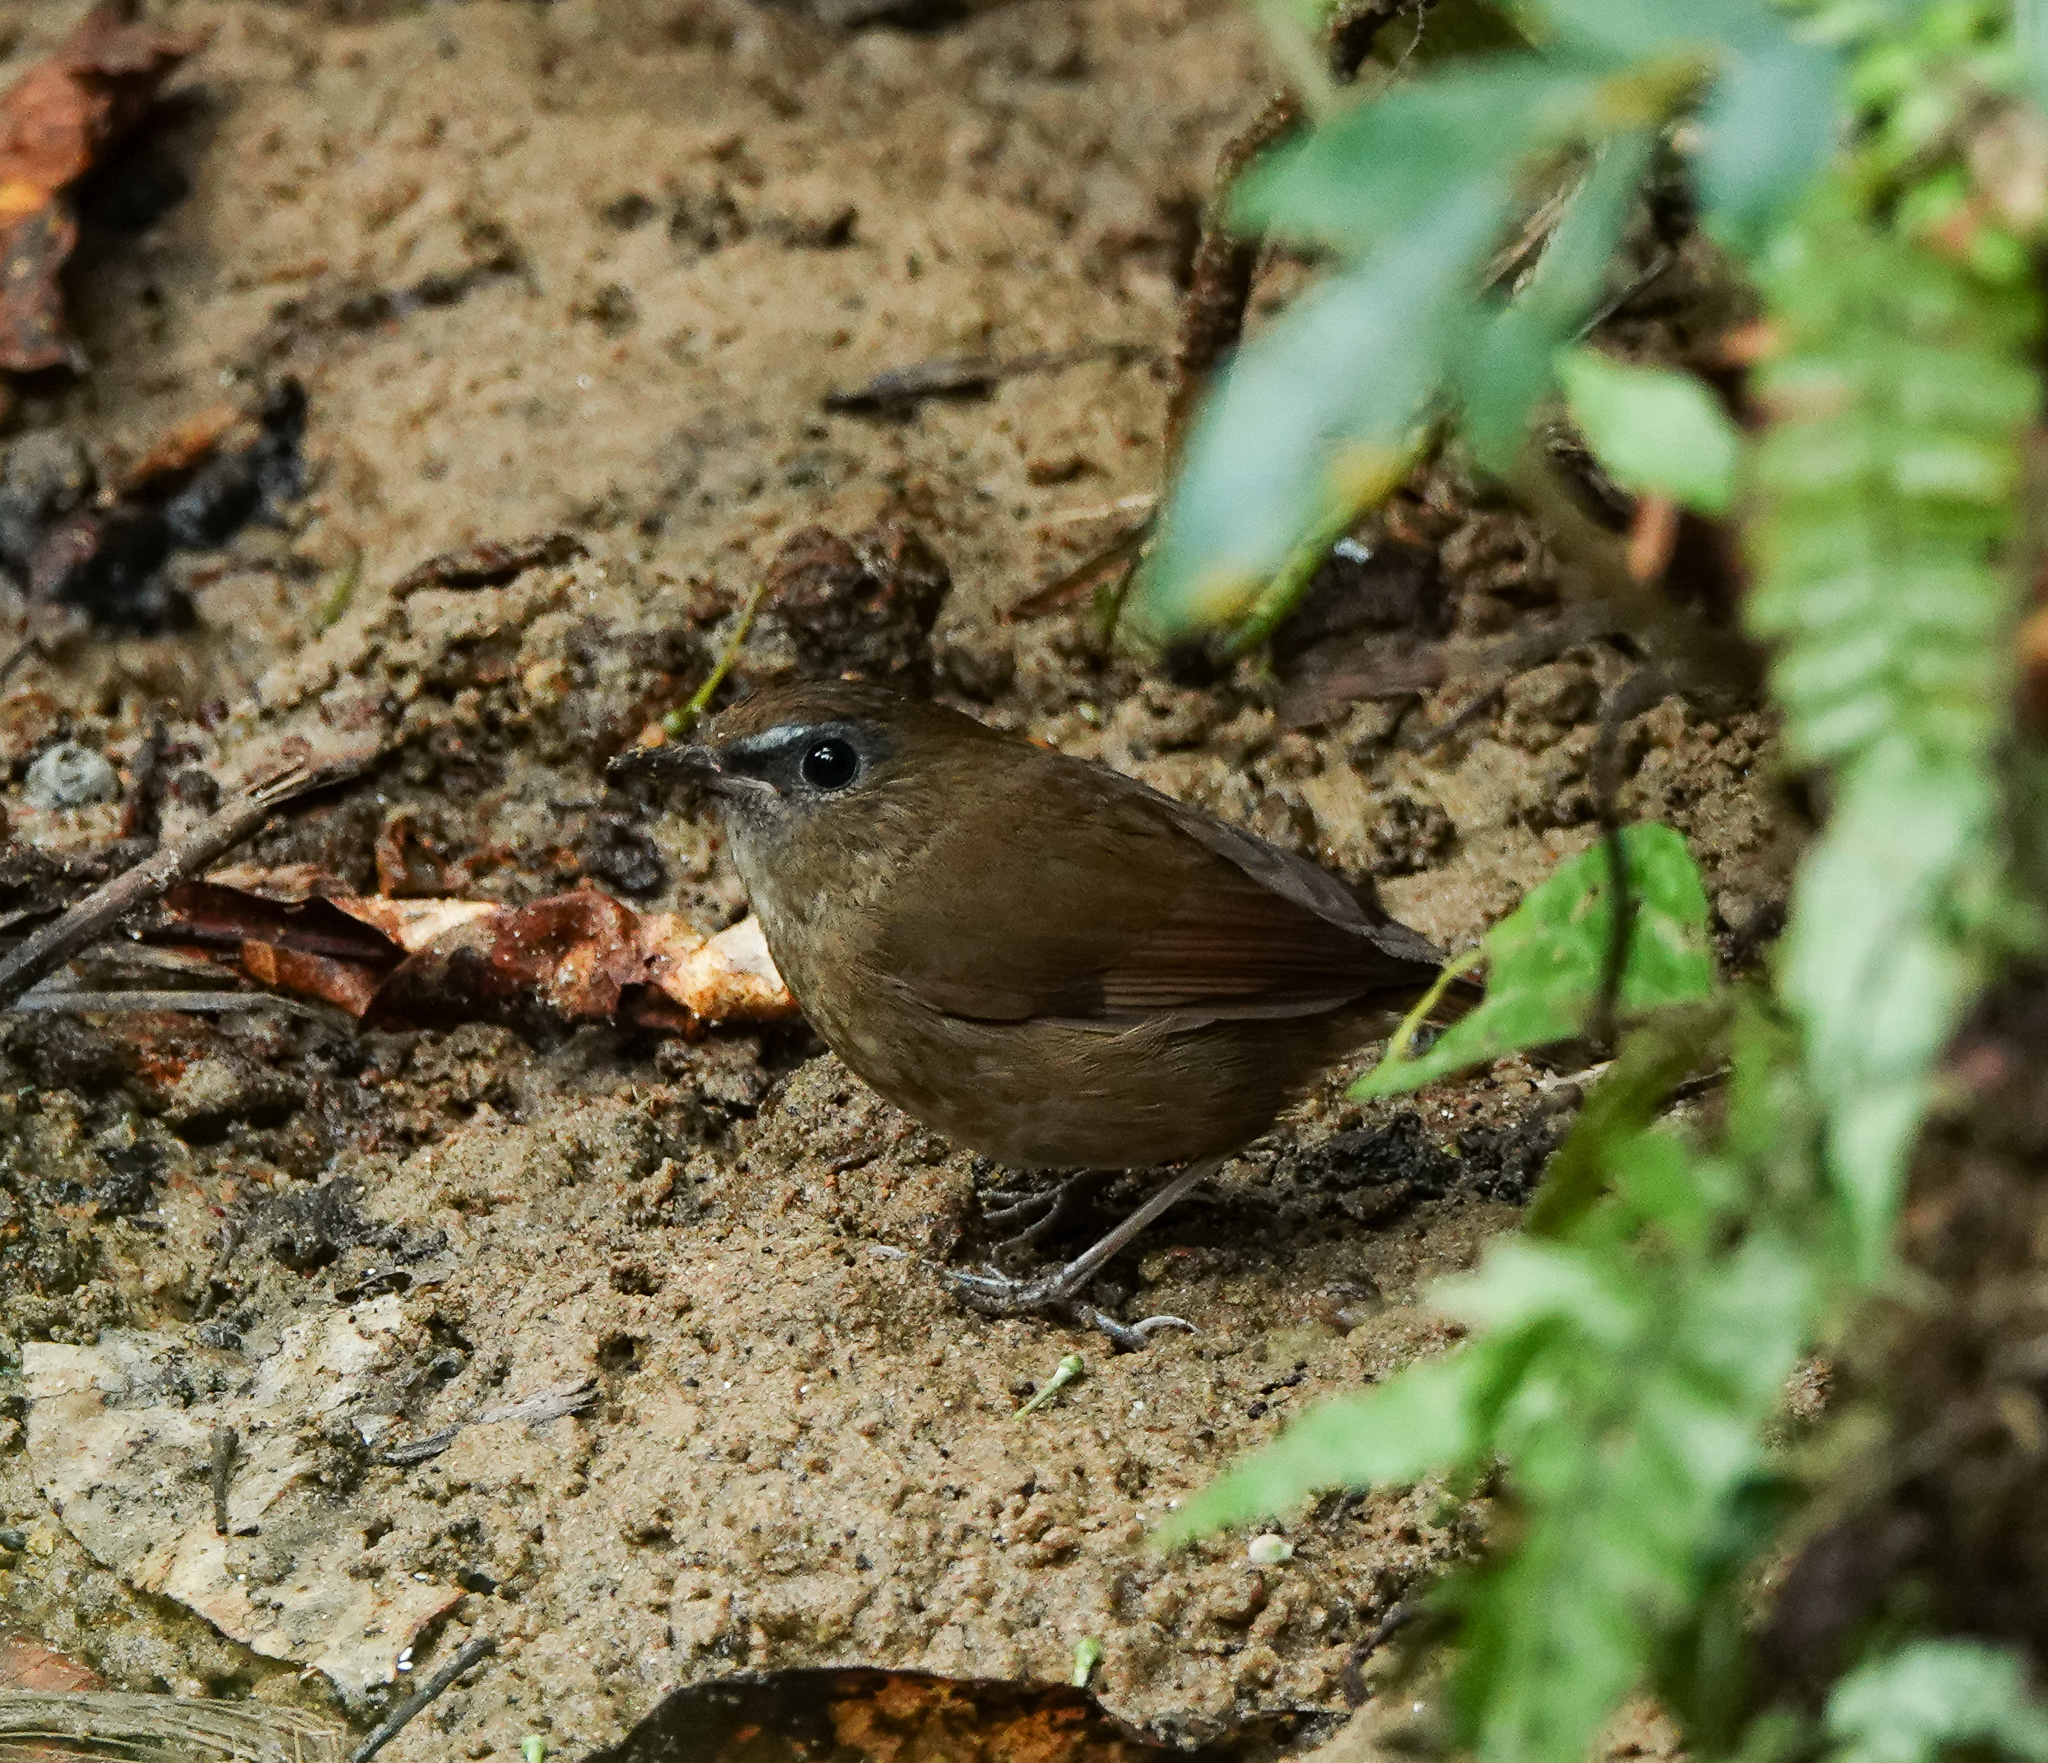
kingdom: Animalia
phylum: Chordata
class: Aves
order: Passeriformes
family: Muscicapidae
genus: Brachypteryx
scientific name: Brachypteryx leucophris
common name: Lesser shortwing
